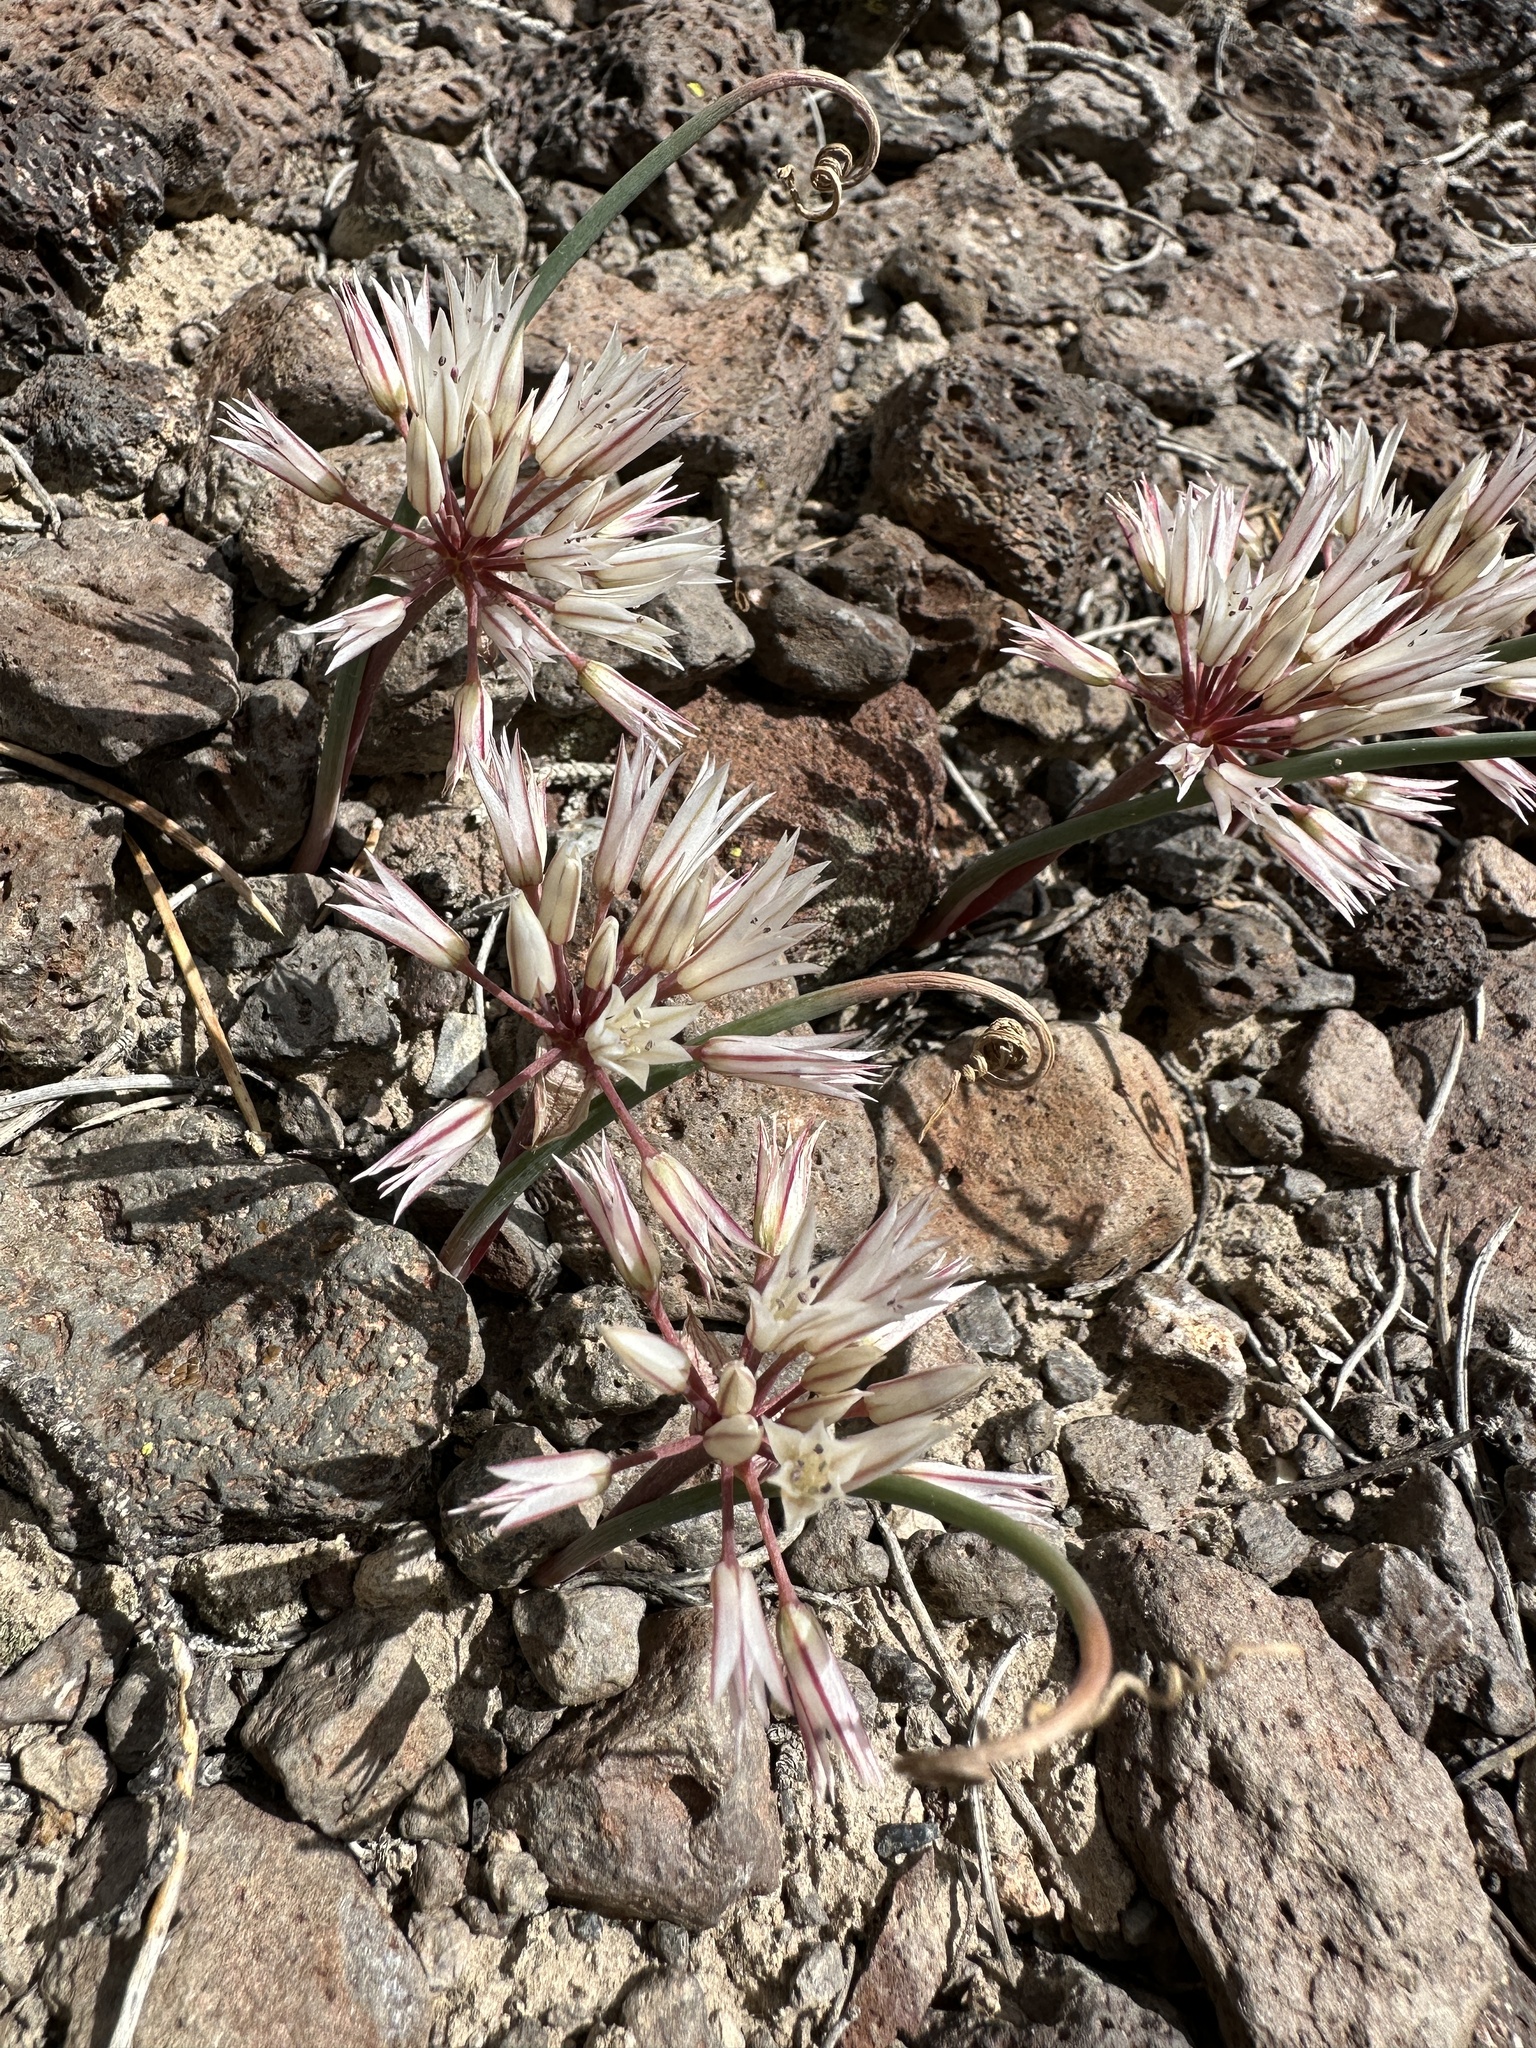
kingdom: Plantae
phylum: Tracheophyta
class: Liliopsida
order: Asparagales
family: Amaryllidaceae
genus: Allium
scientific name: Allium atrorubens
